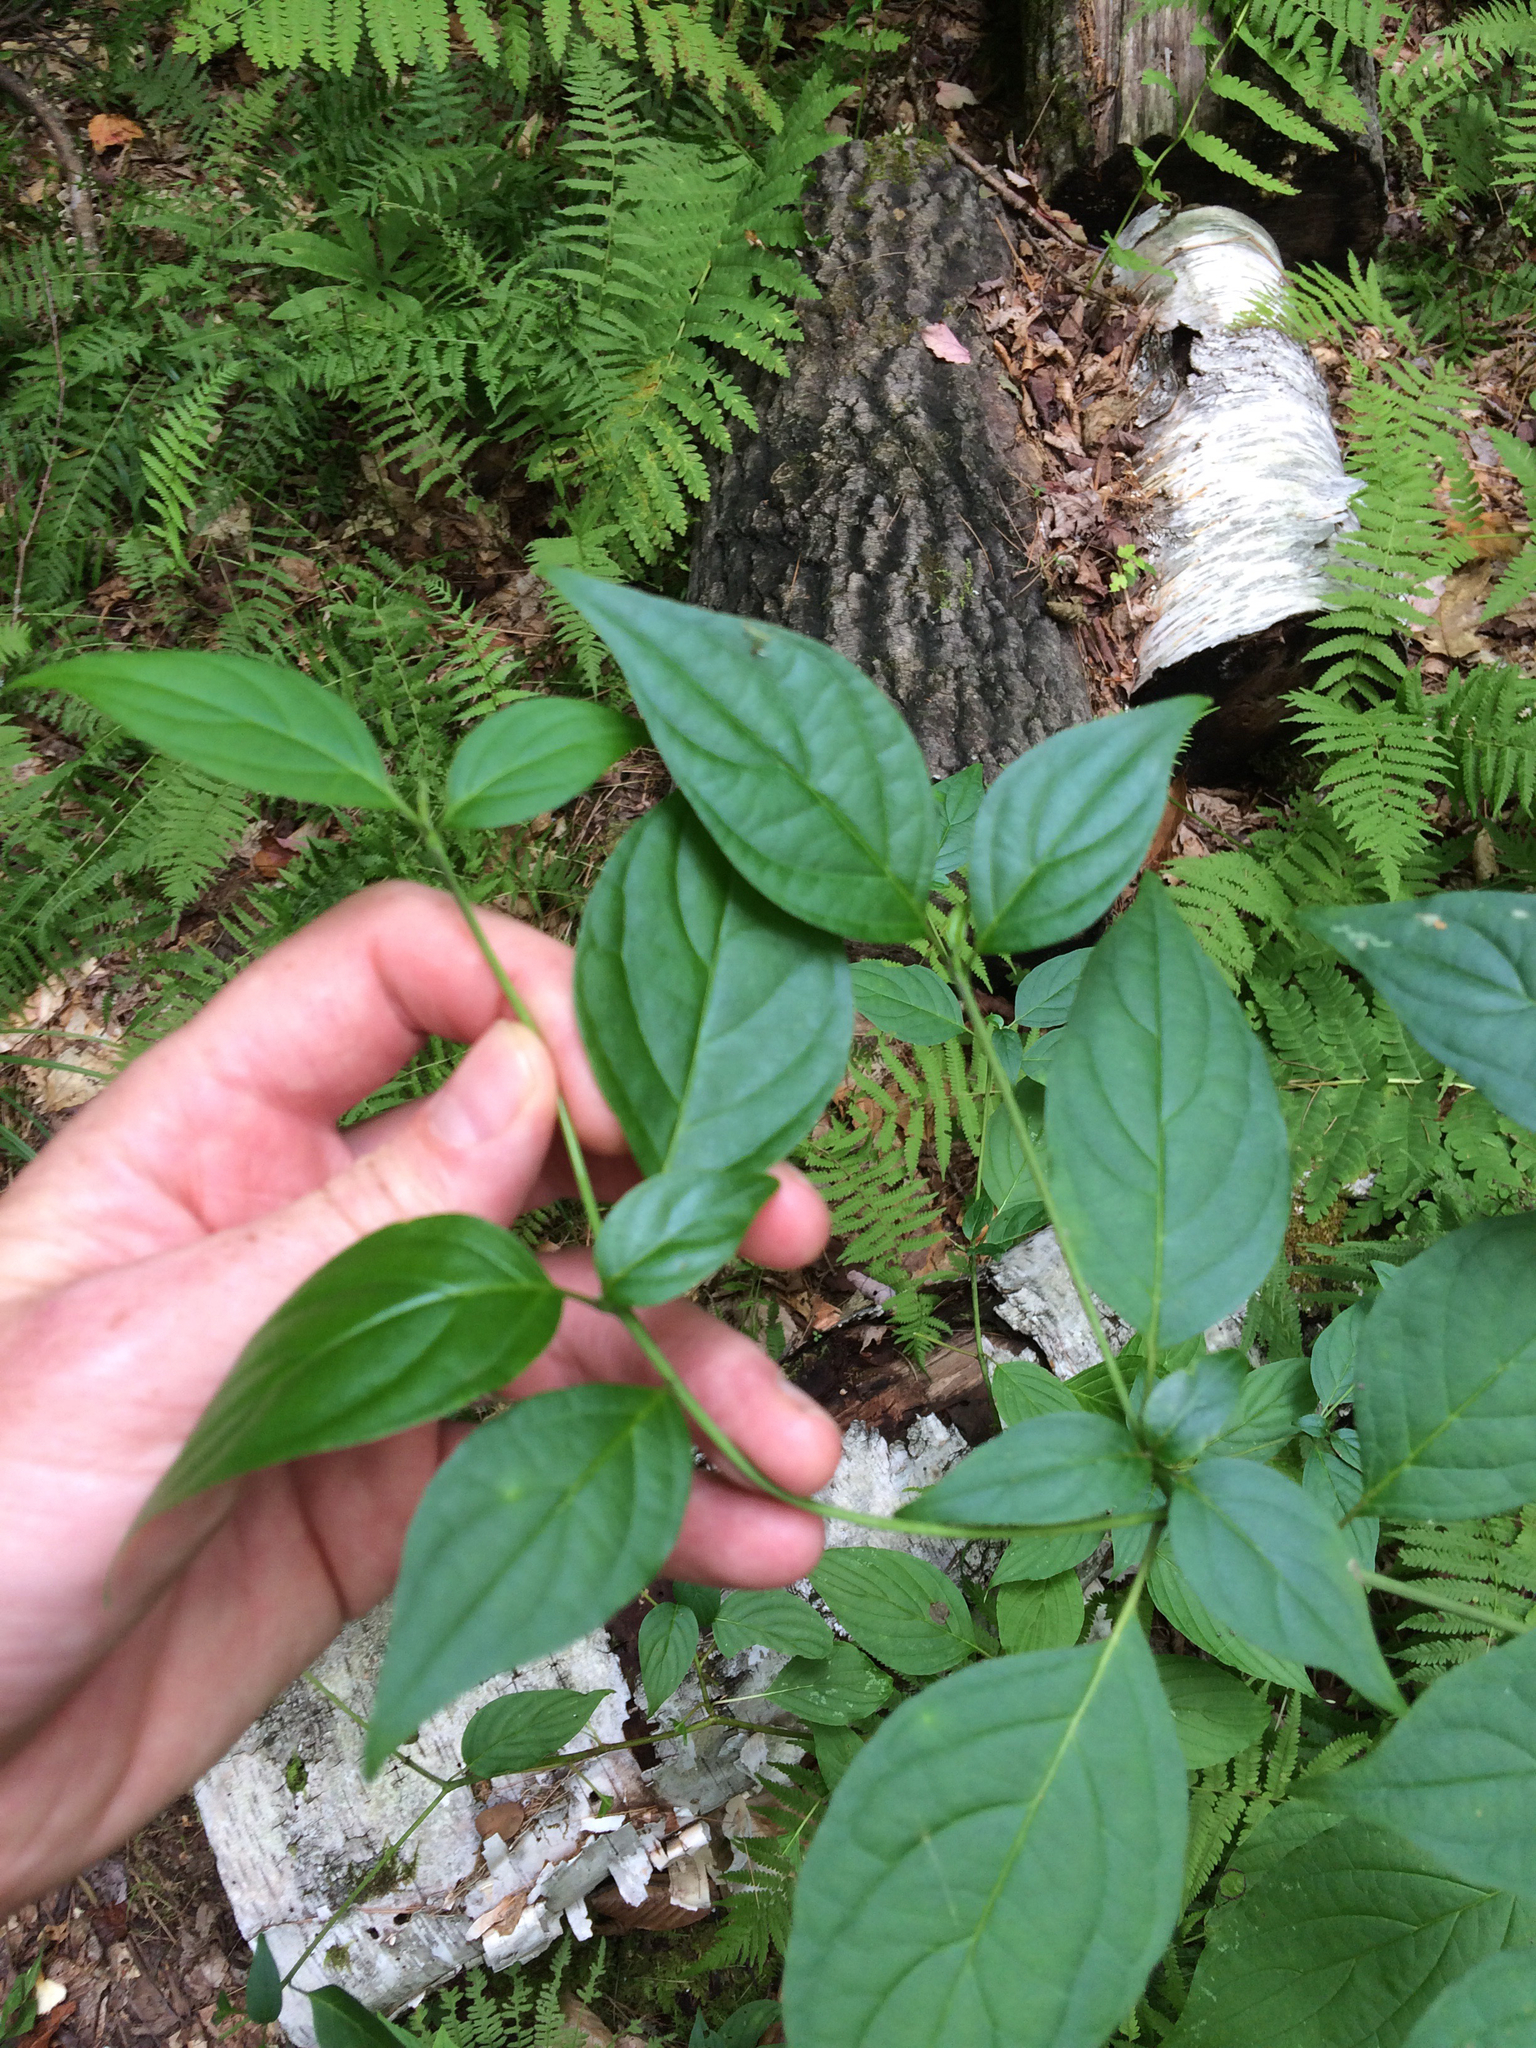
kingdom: Plantae
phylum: Tracheophyta
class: Magnoliopsida
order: Cornales
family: Cornaceae
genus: Cornus
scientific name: Cornus alternifolia
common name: Pagoda dogwood
